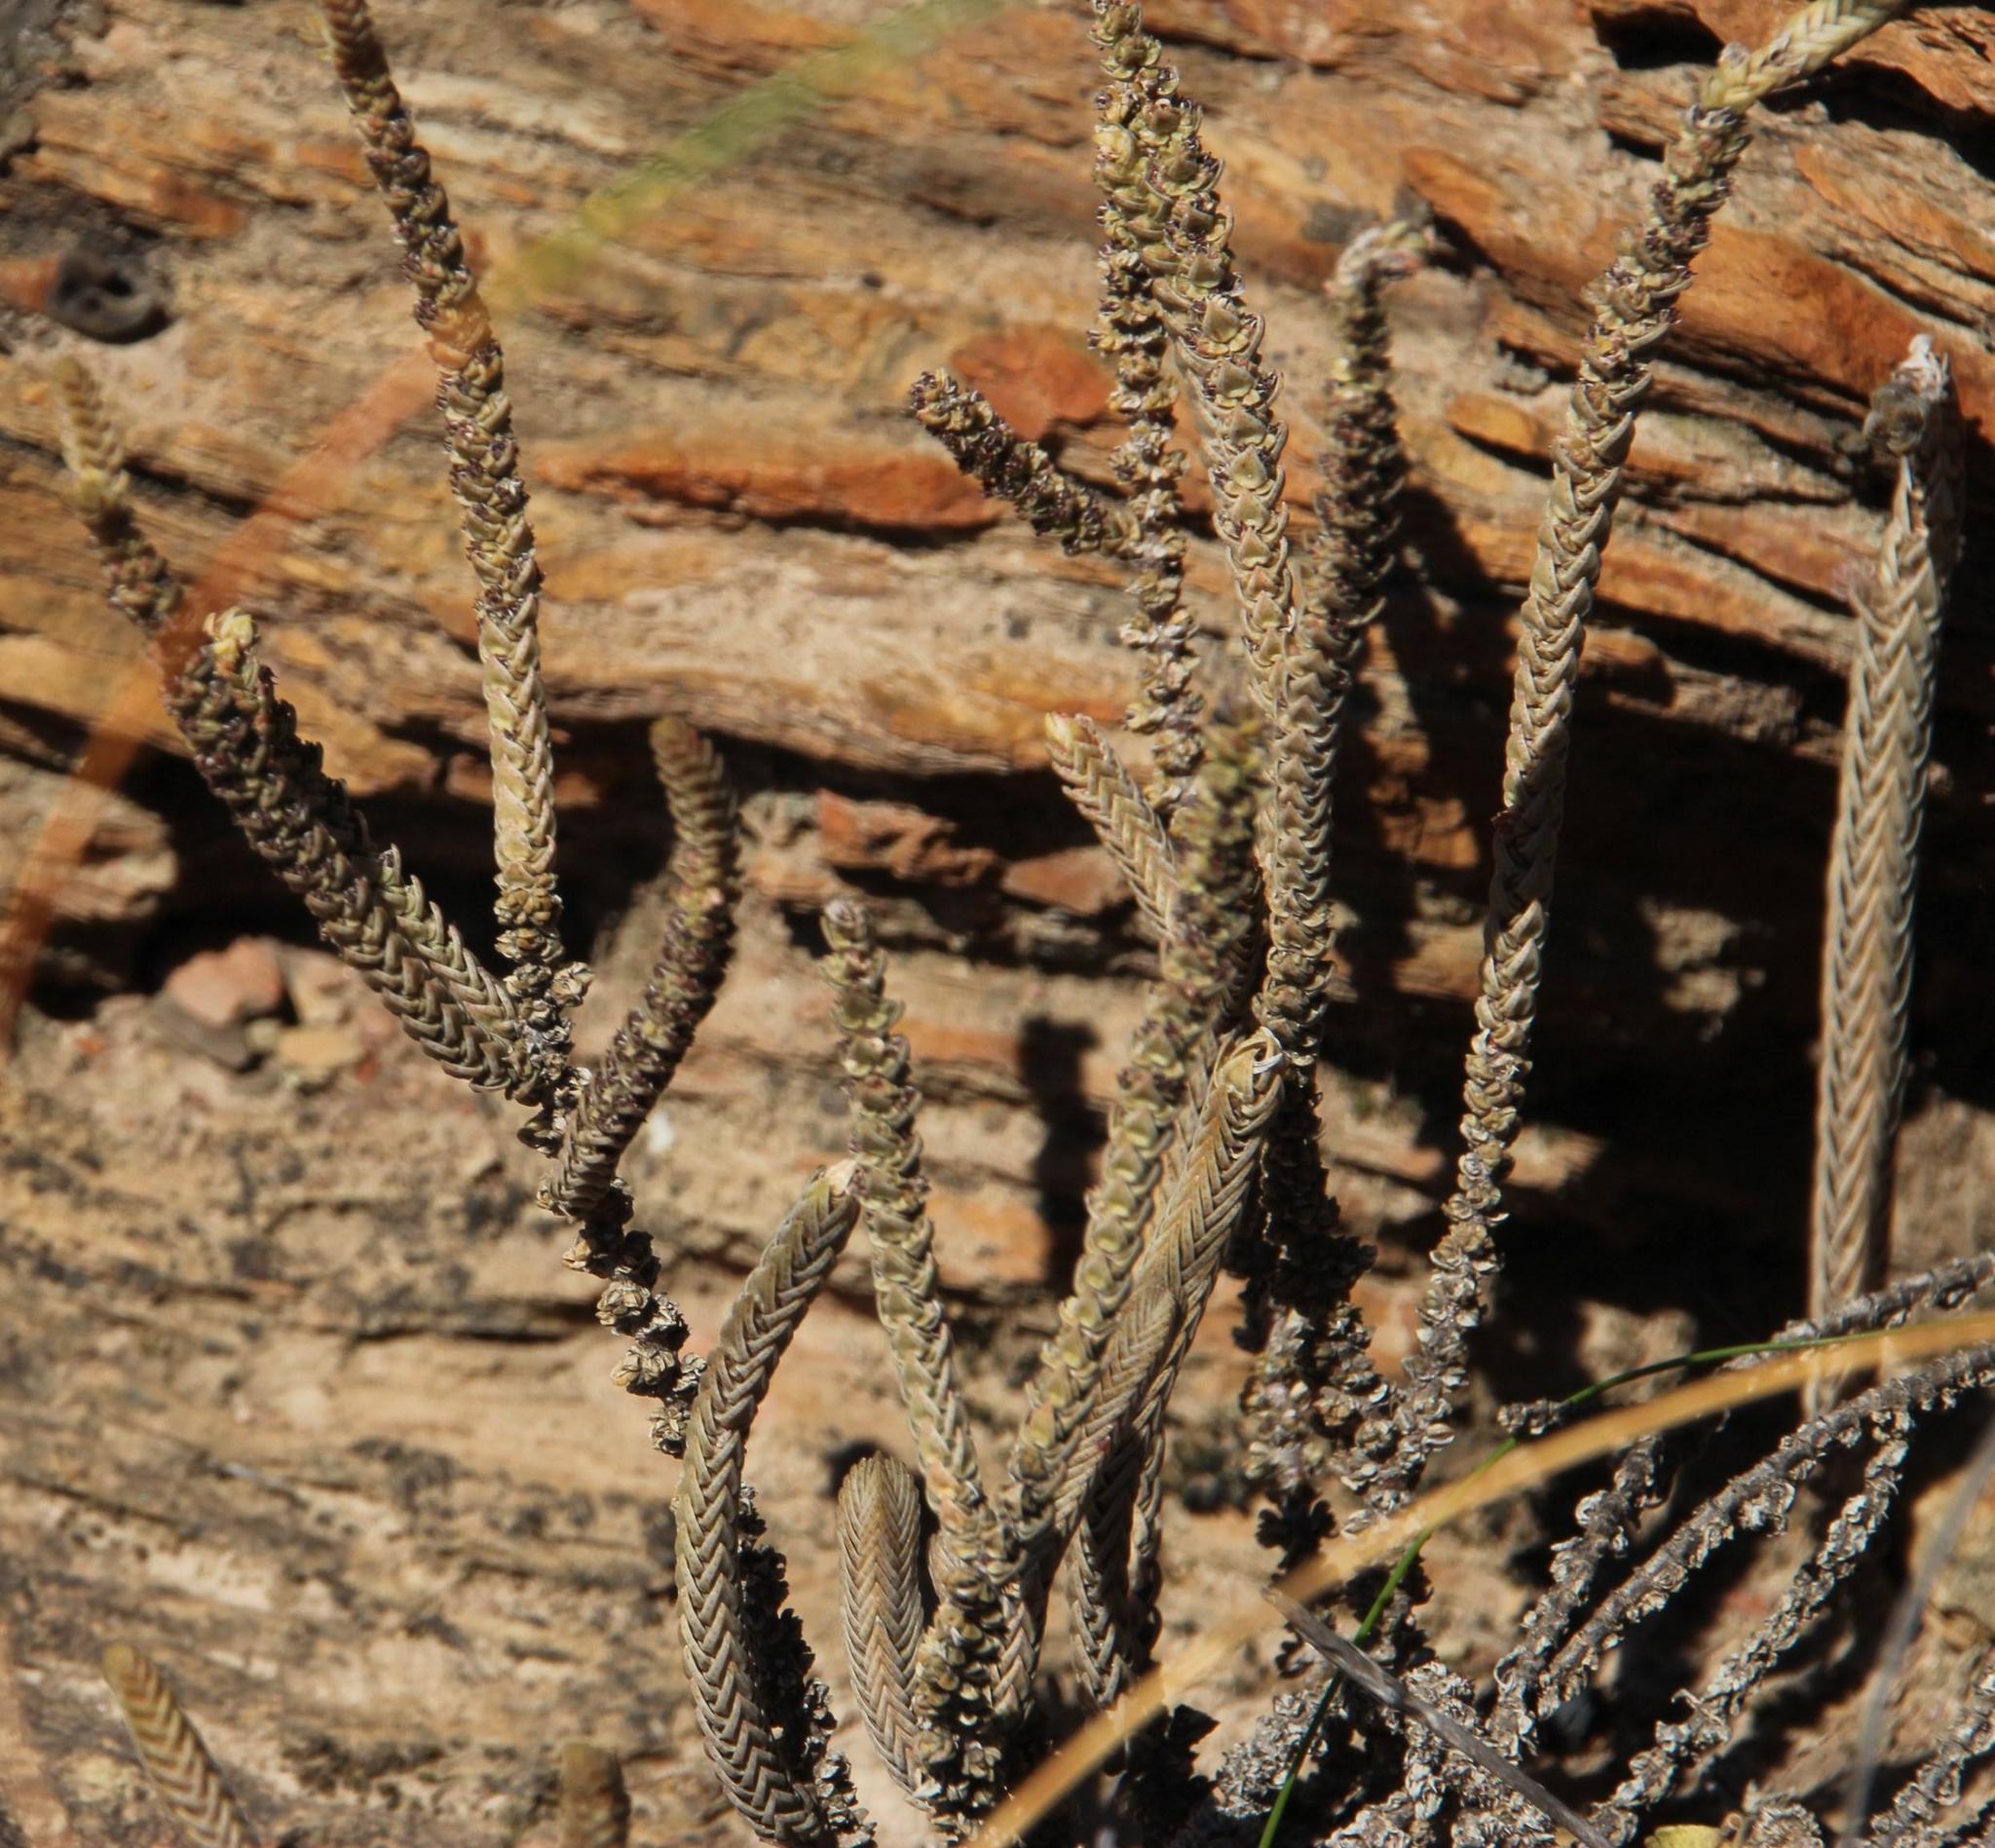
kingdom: Plantae
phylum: Tracheophyta
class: Magnoliopsida
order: Saxifragales
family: Crassulaceae
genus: Crassula
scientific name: Crassula muscosa
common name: Toy-cypress
